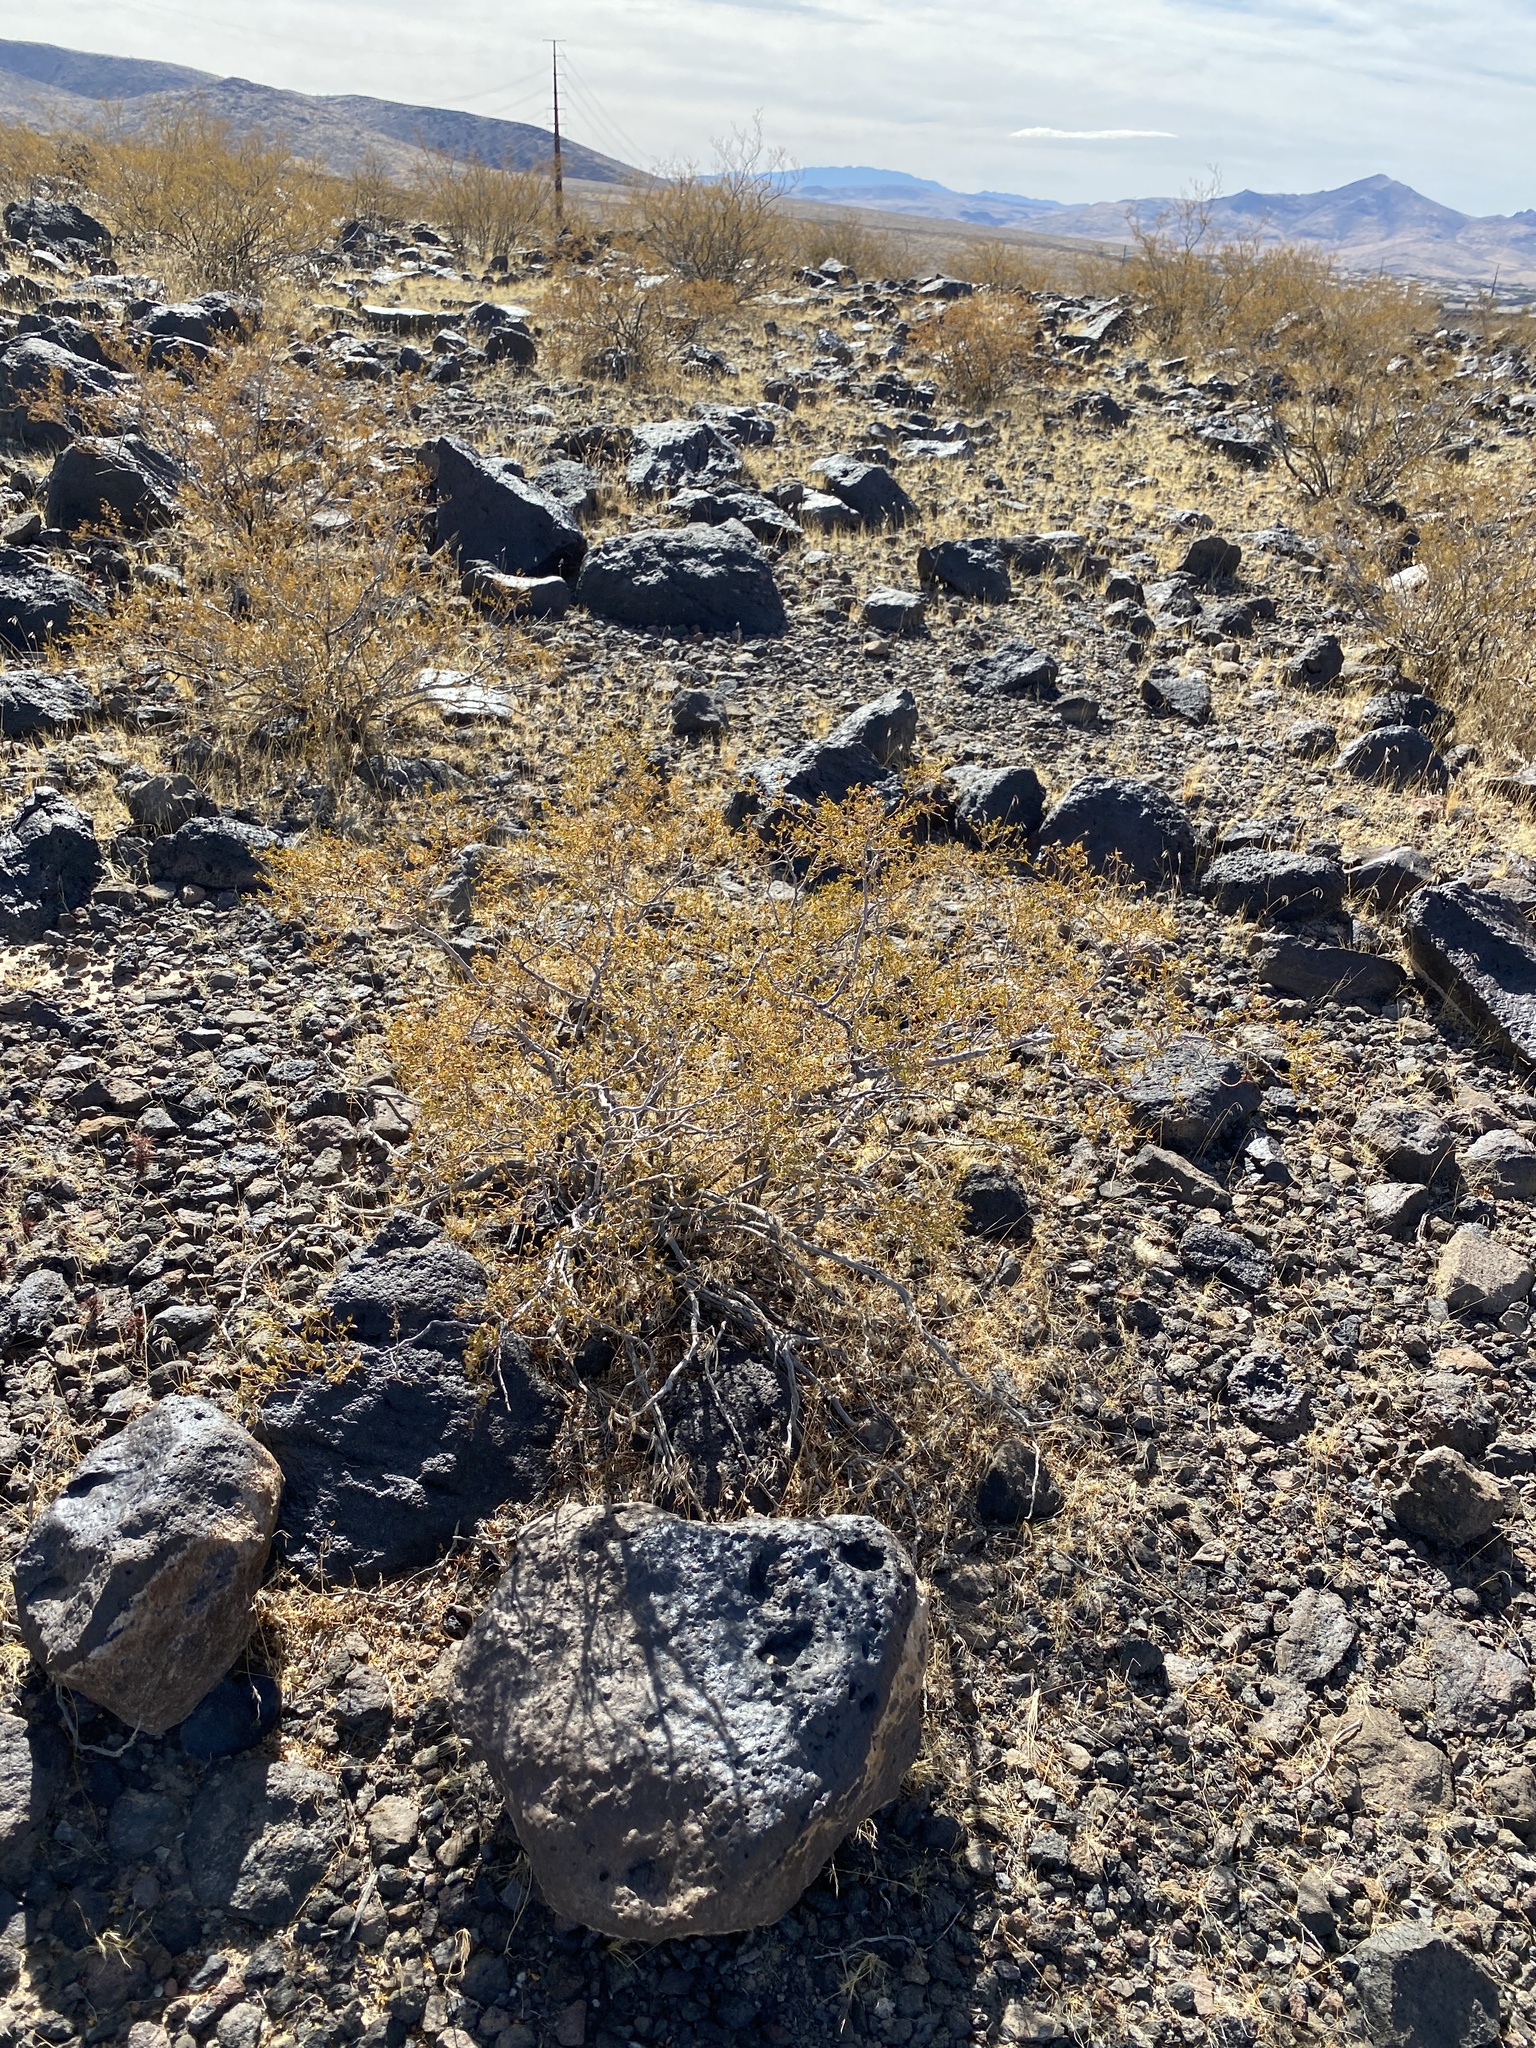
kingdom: Plantae
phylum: Tracheophyta
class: Magnoliopsida
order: Zygophyllales
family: Zygophyllaceae
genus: Larrea
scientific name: Larrea tridentata
